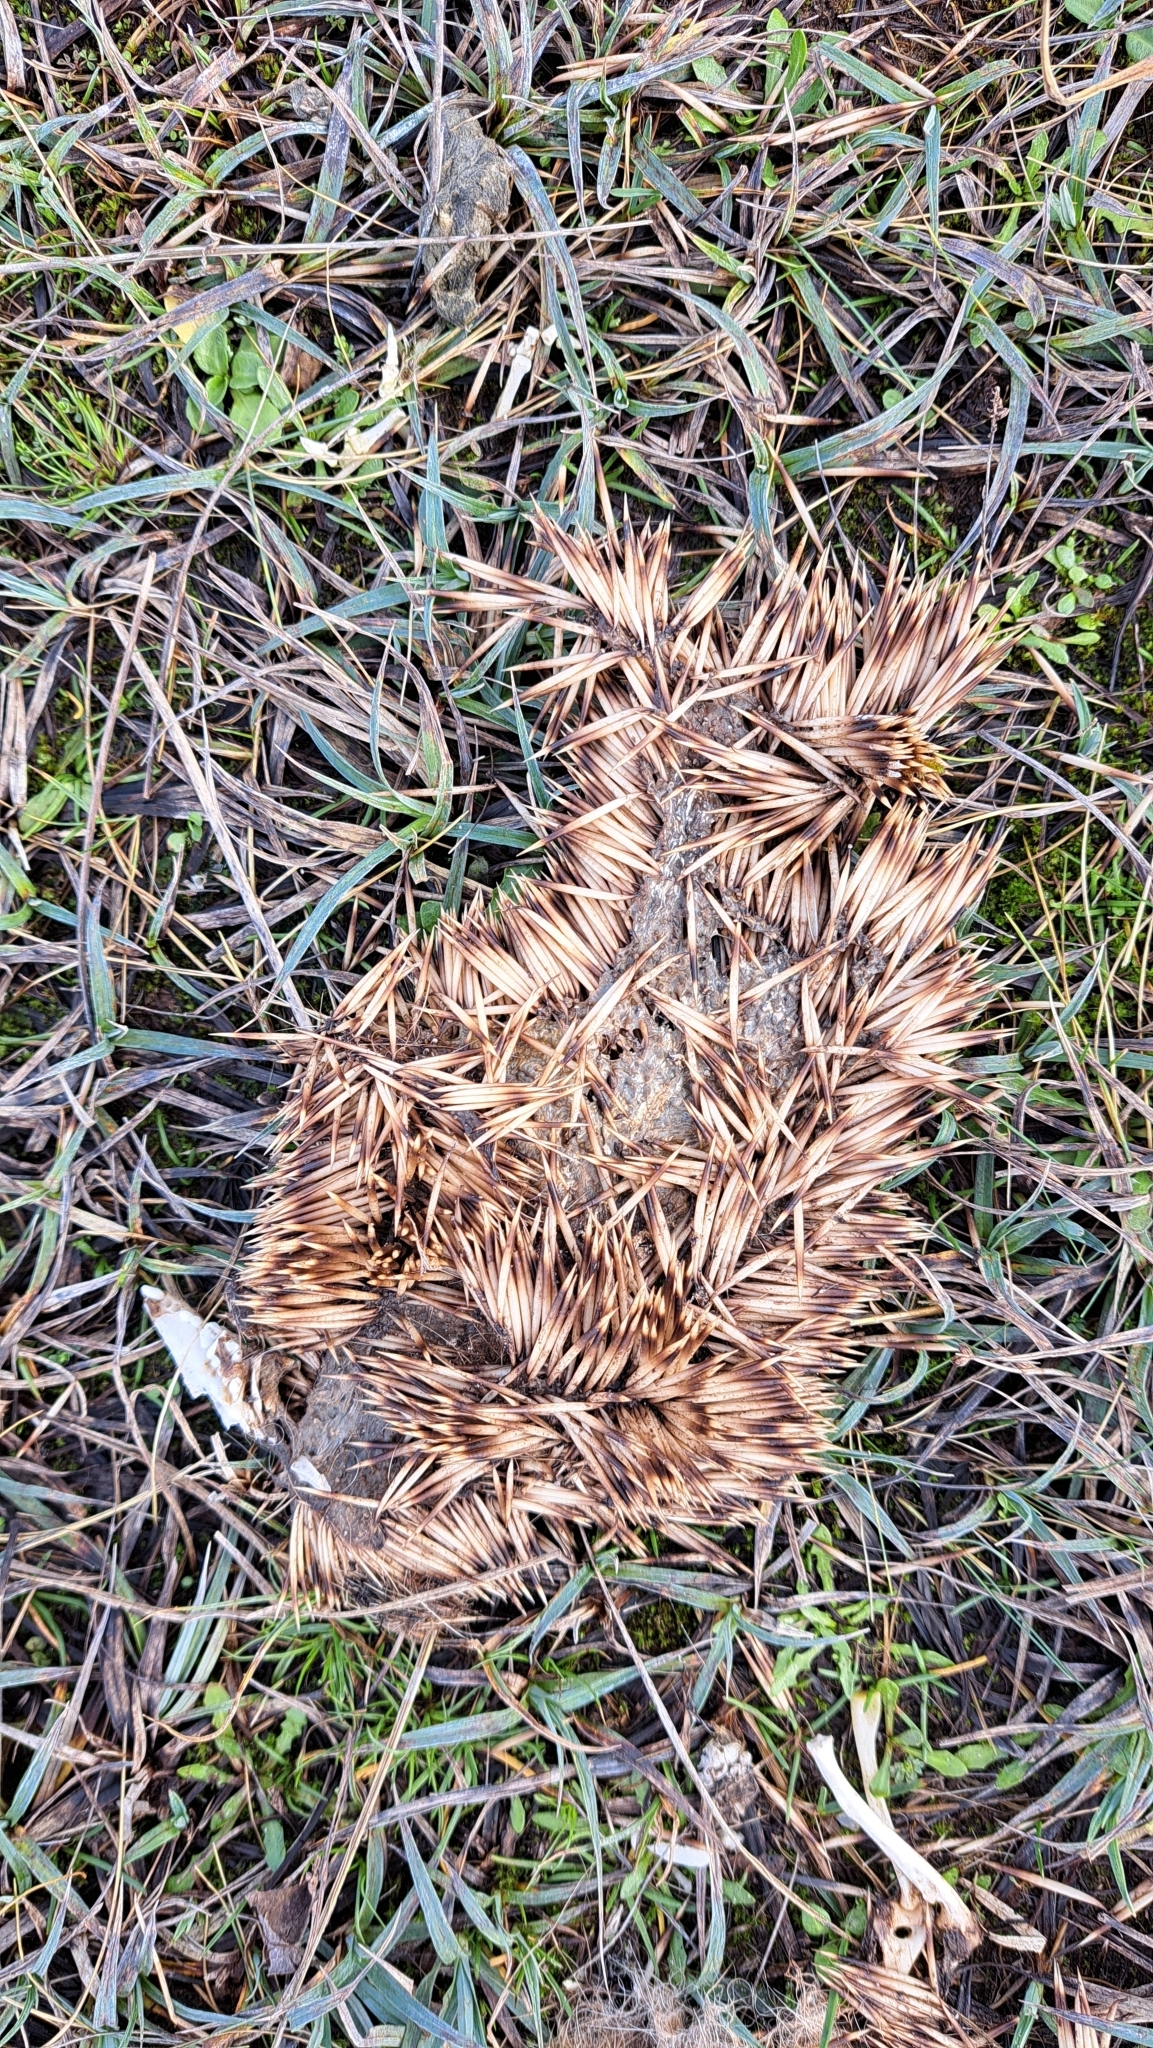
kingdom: Animalia
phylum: Chordata
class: Mammalia
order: Erinaceomorpha
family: Erinaceidae
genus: Erinaceus
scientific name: Erinaceus europaeus
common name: West european hedgehog
